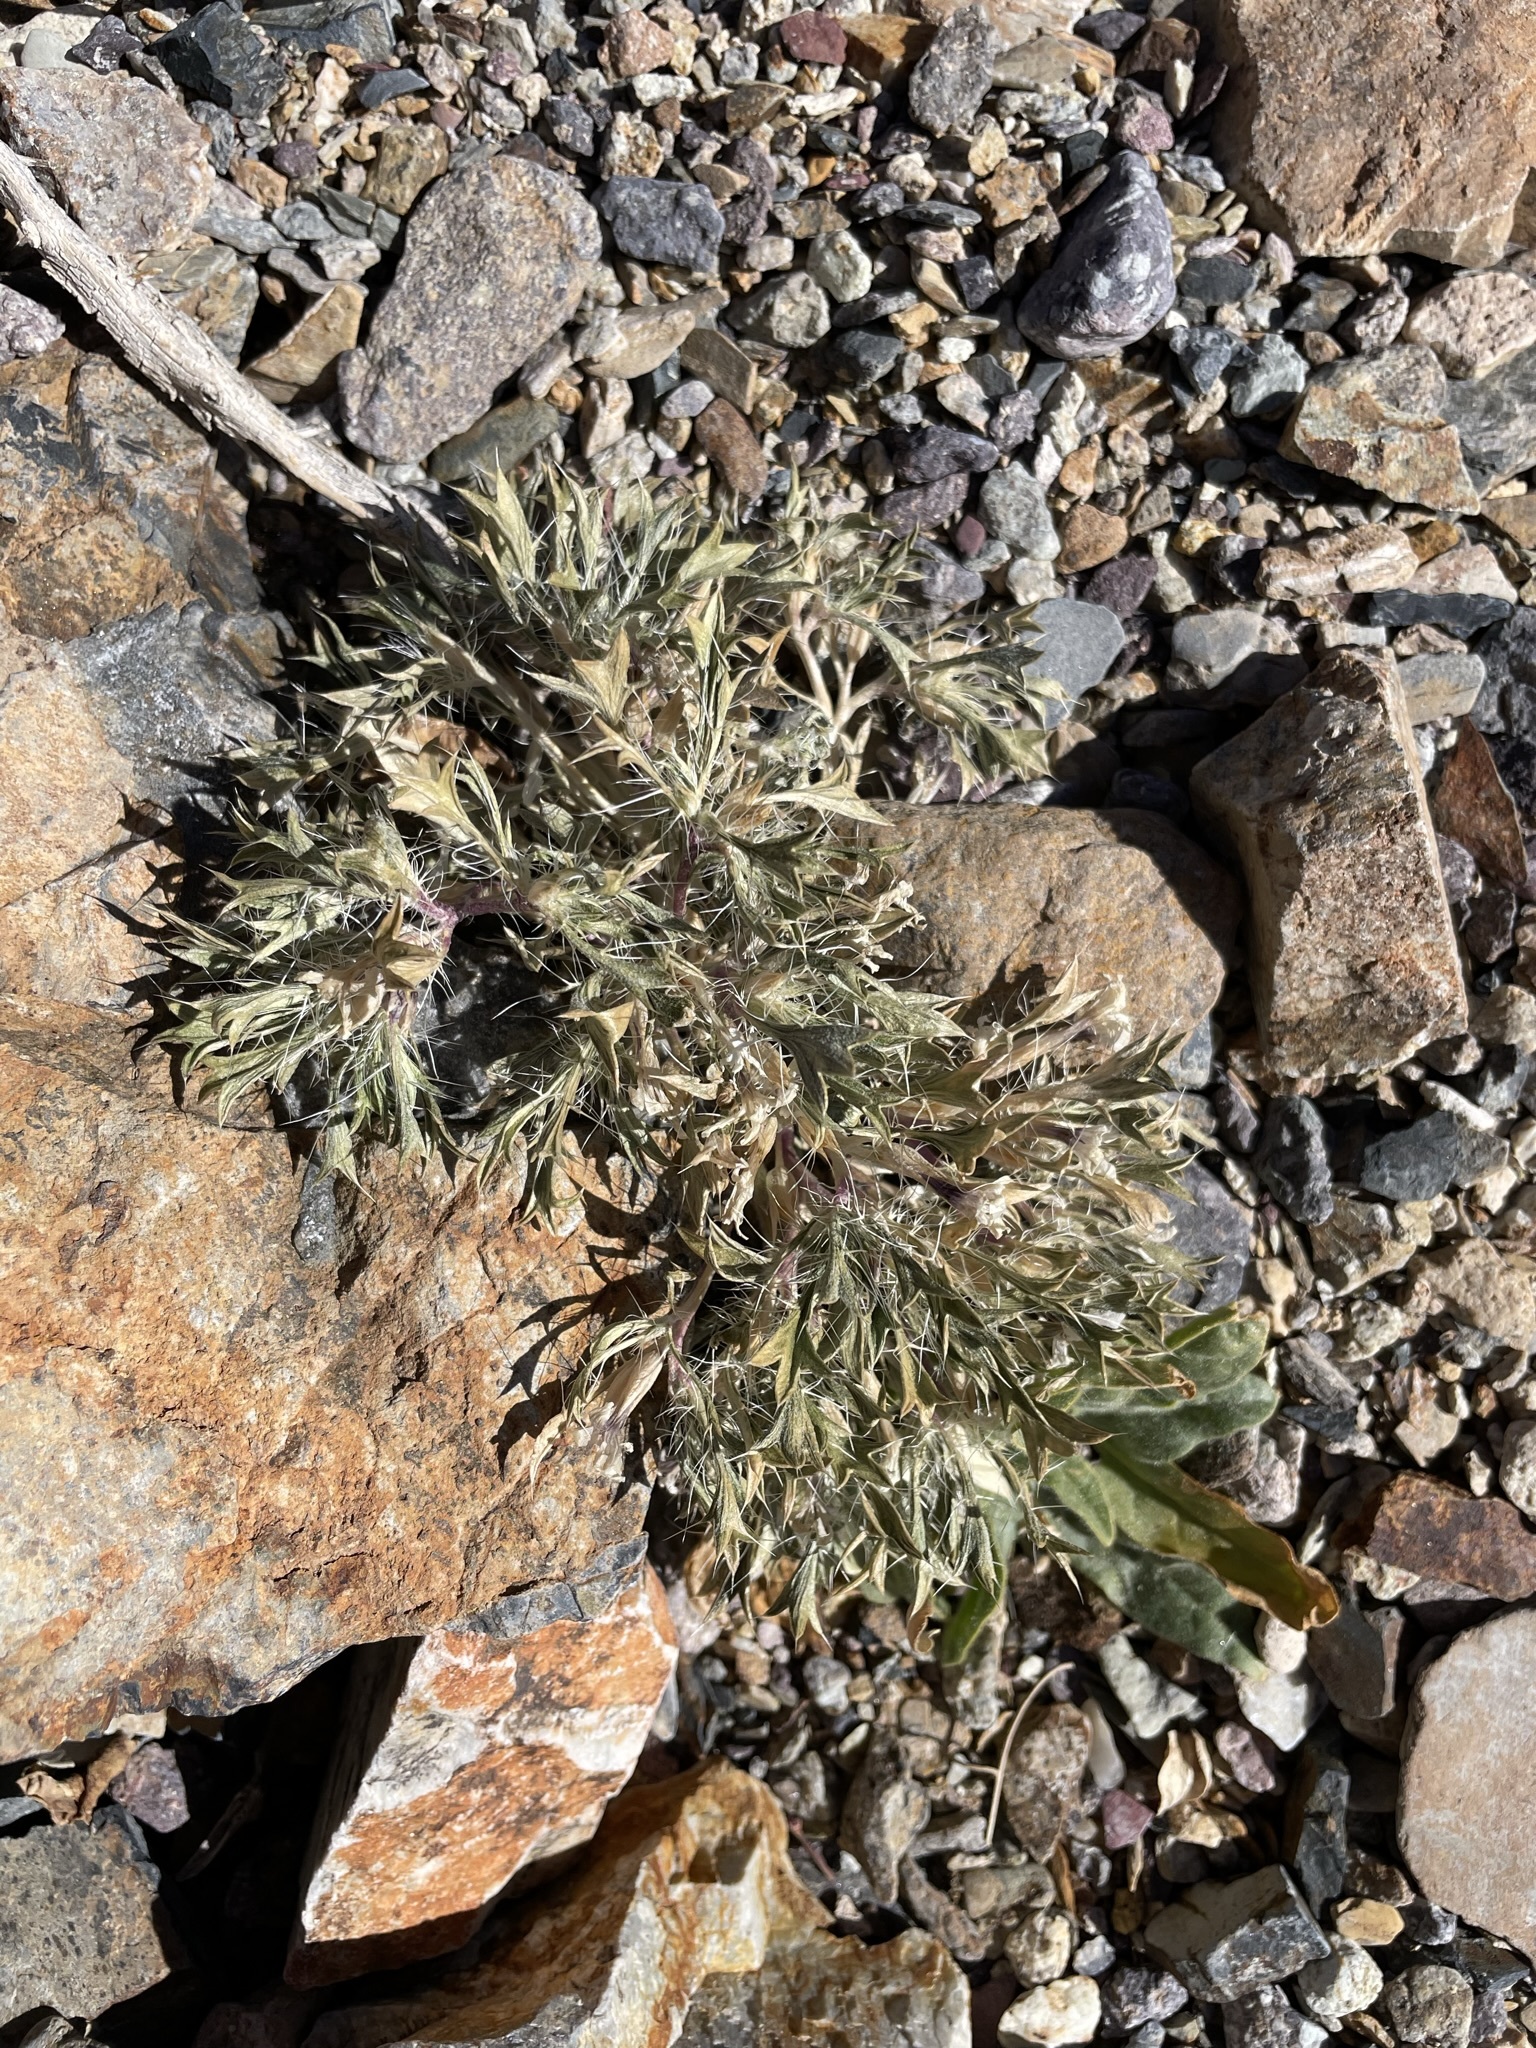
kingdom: Plantae
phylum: Tracheophyta
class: Magnoliopsida
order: Ericales
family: Polemoniaceae
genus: Langloisia
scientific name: Langloisia setosissima
